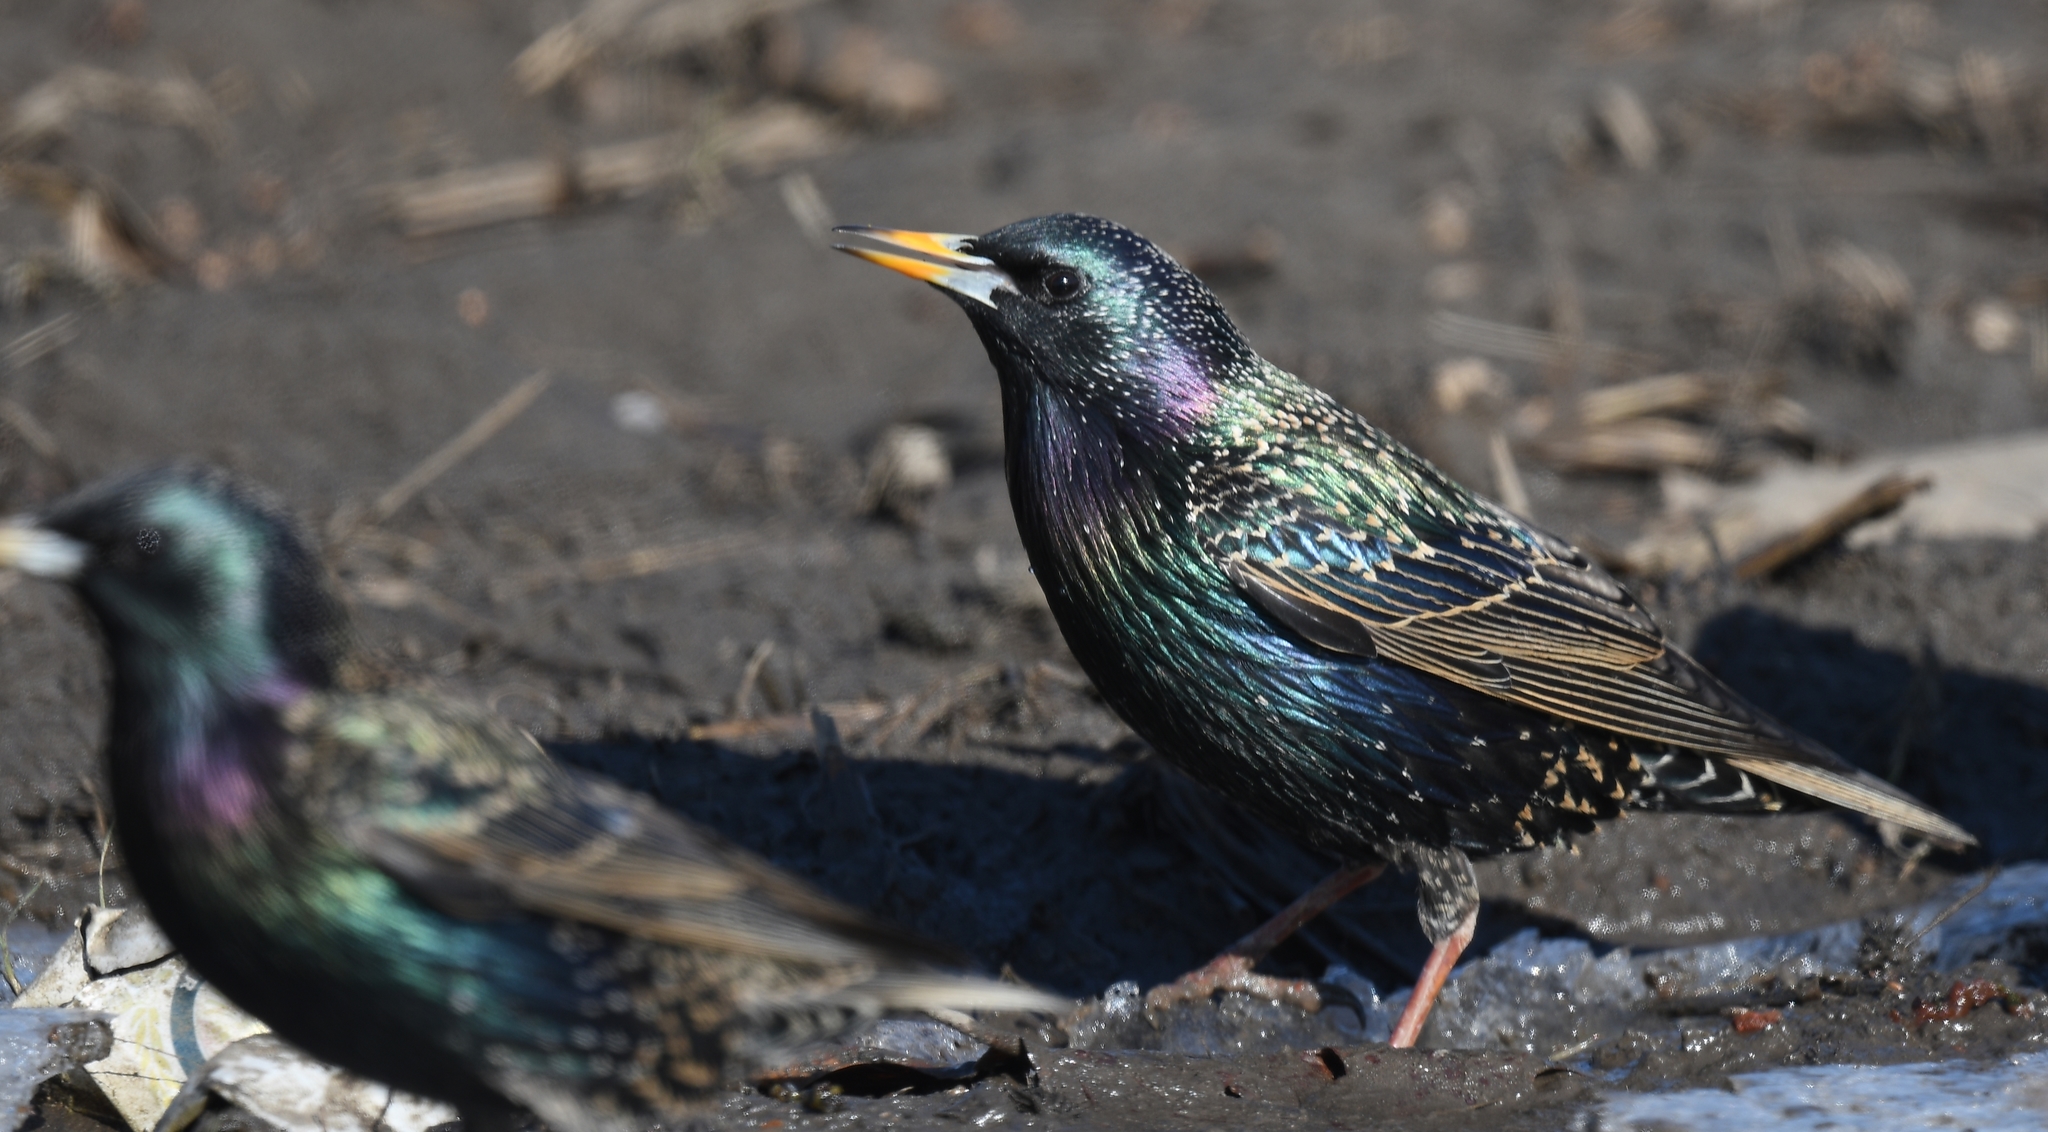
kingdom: Animalia
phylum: Chordata
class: Aves
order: Passeriformes
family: Sturnidae
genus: Sturnus
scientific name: Sturnus vulgaris
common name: Common starling
